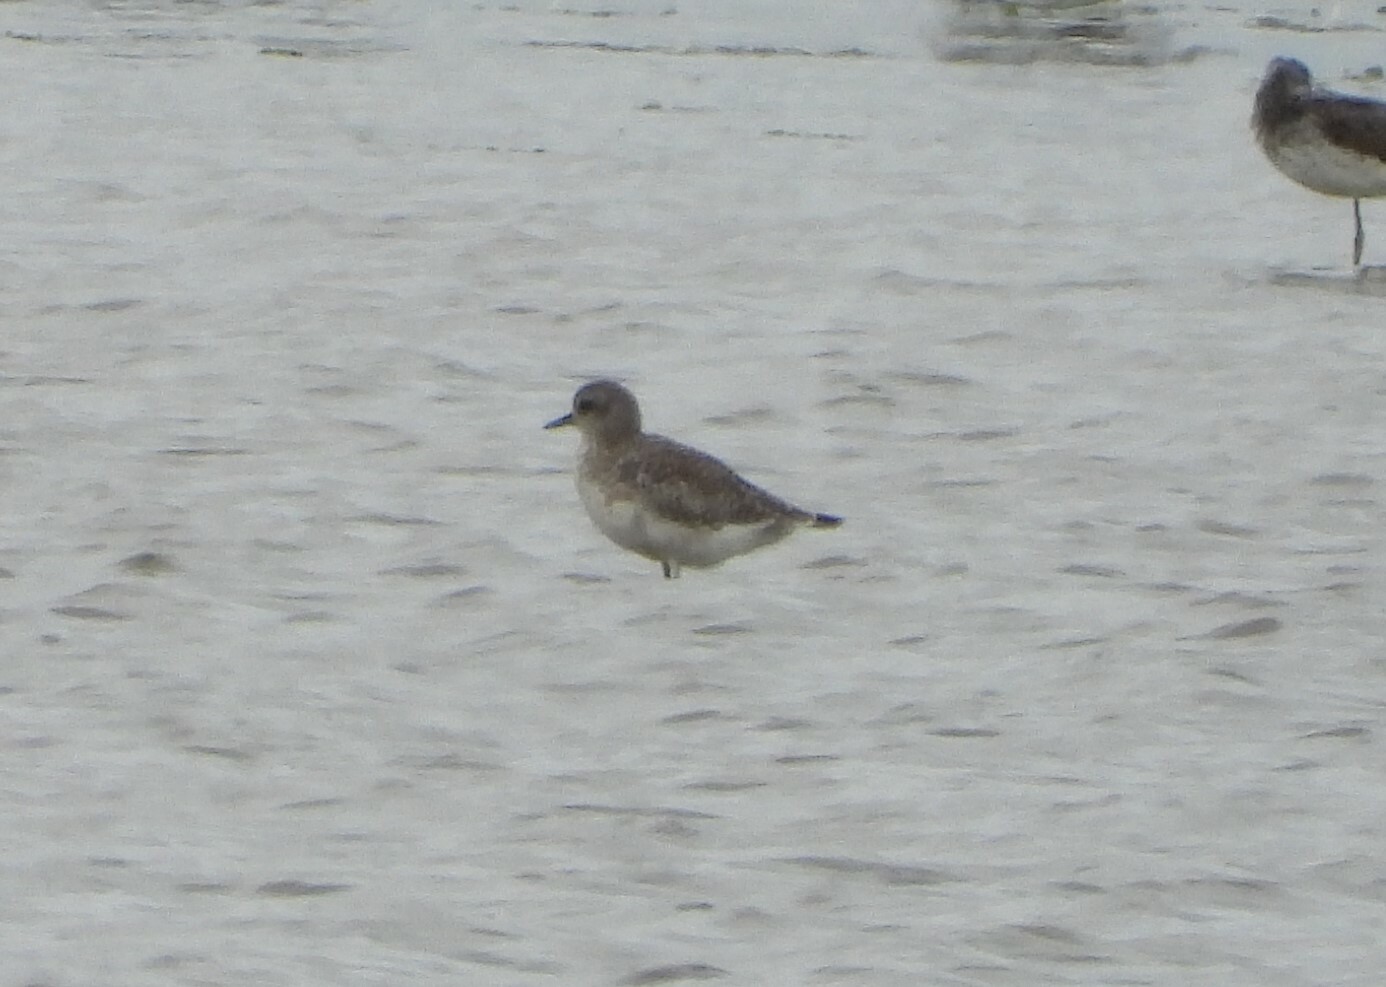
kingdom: Animalia
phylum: Chordata
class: Aves
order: Charadriiformes
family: Charadriidae
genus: Pluvialis
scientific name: Pluvialis apricaria
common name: European golden plover
